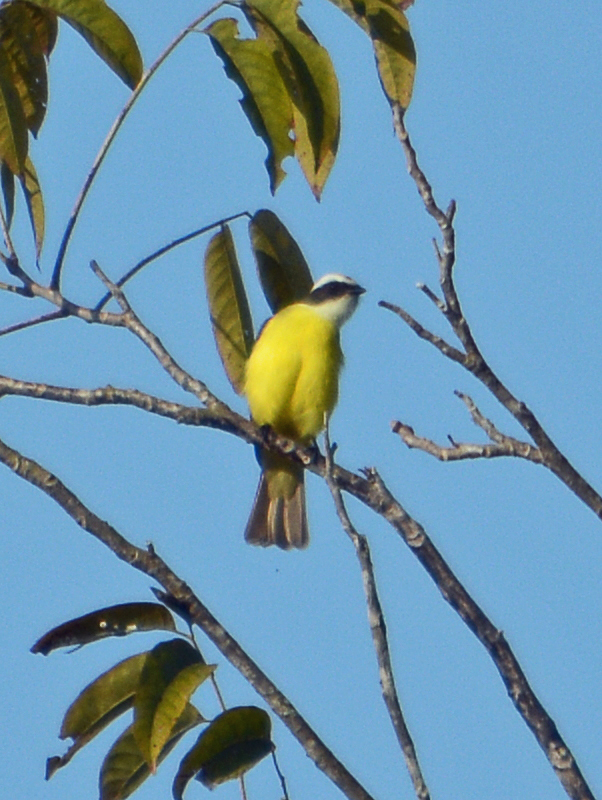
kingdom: Animalia
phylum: Chordata
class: Aves
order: Passeriformes
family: Tyrannidae
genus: Myiozetetes
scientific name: Myiozetetes similis
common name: Social flycatcher
